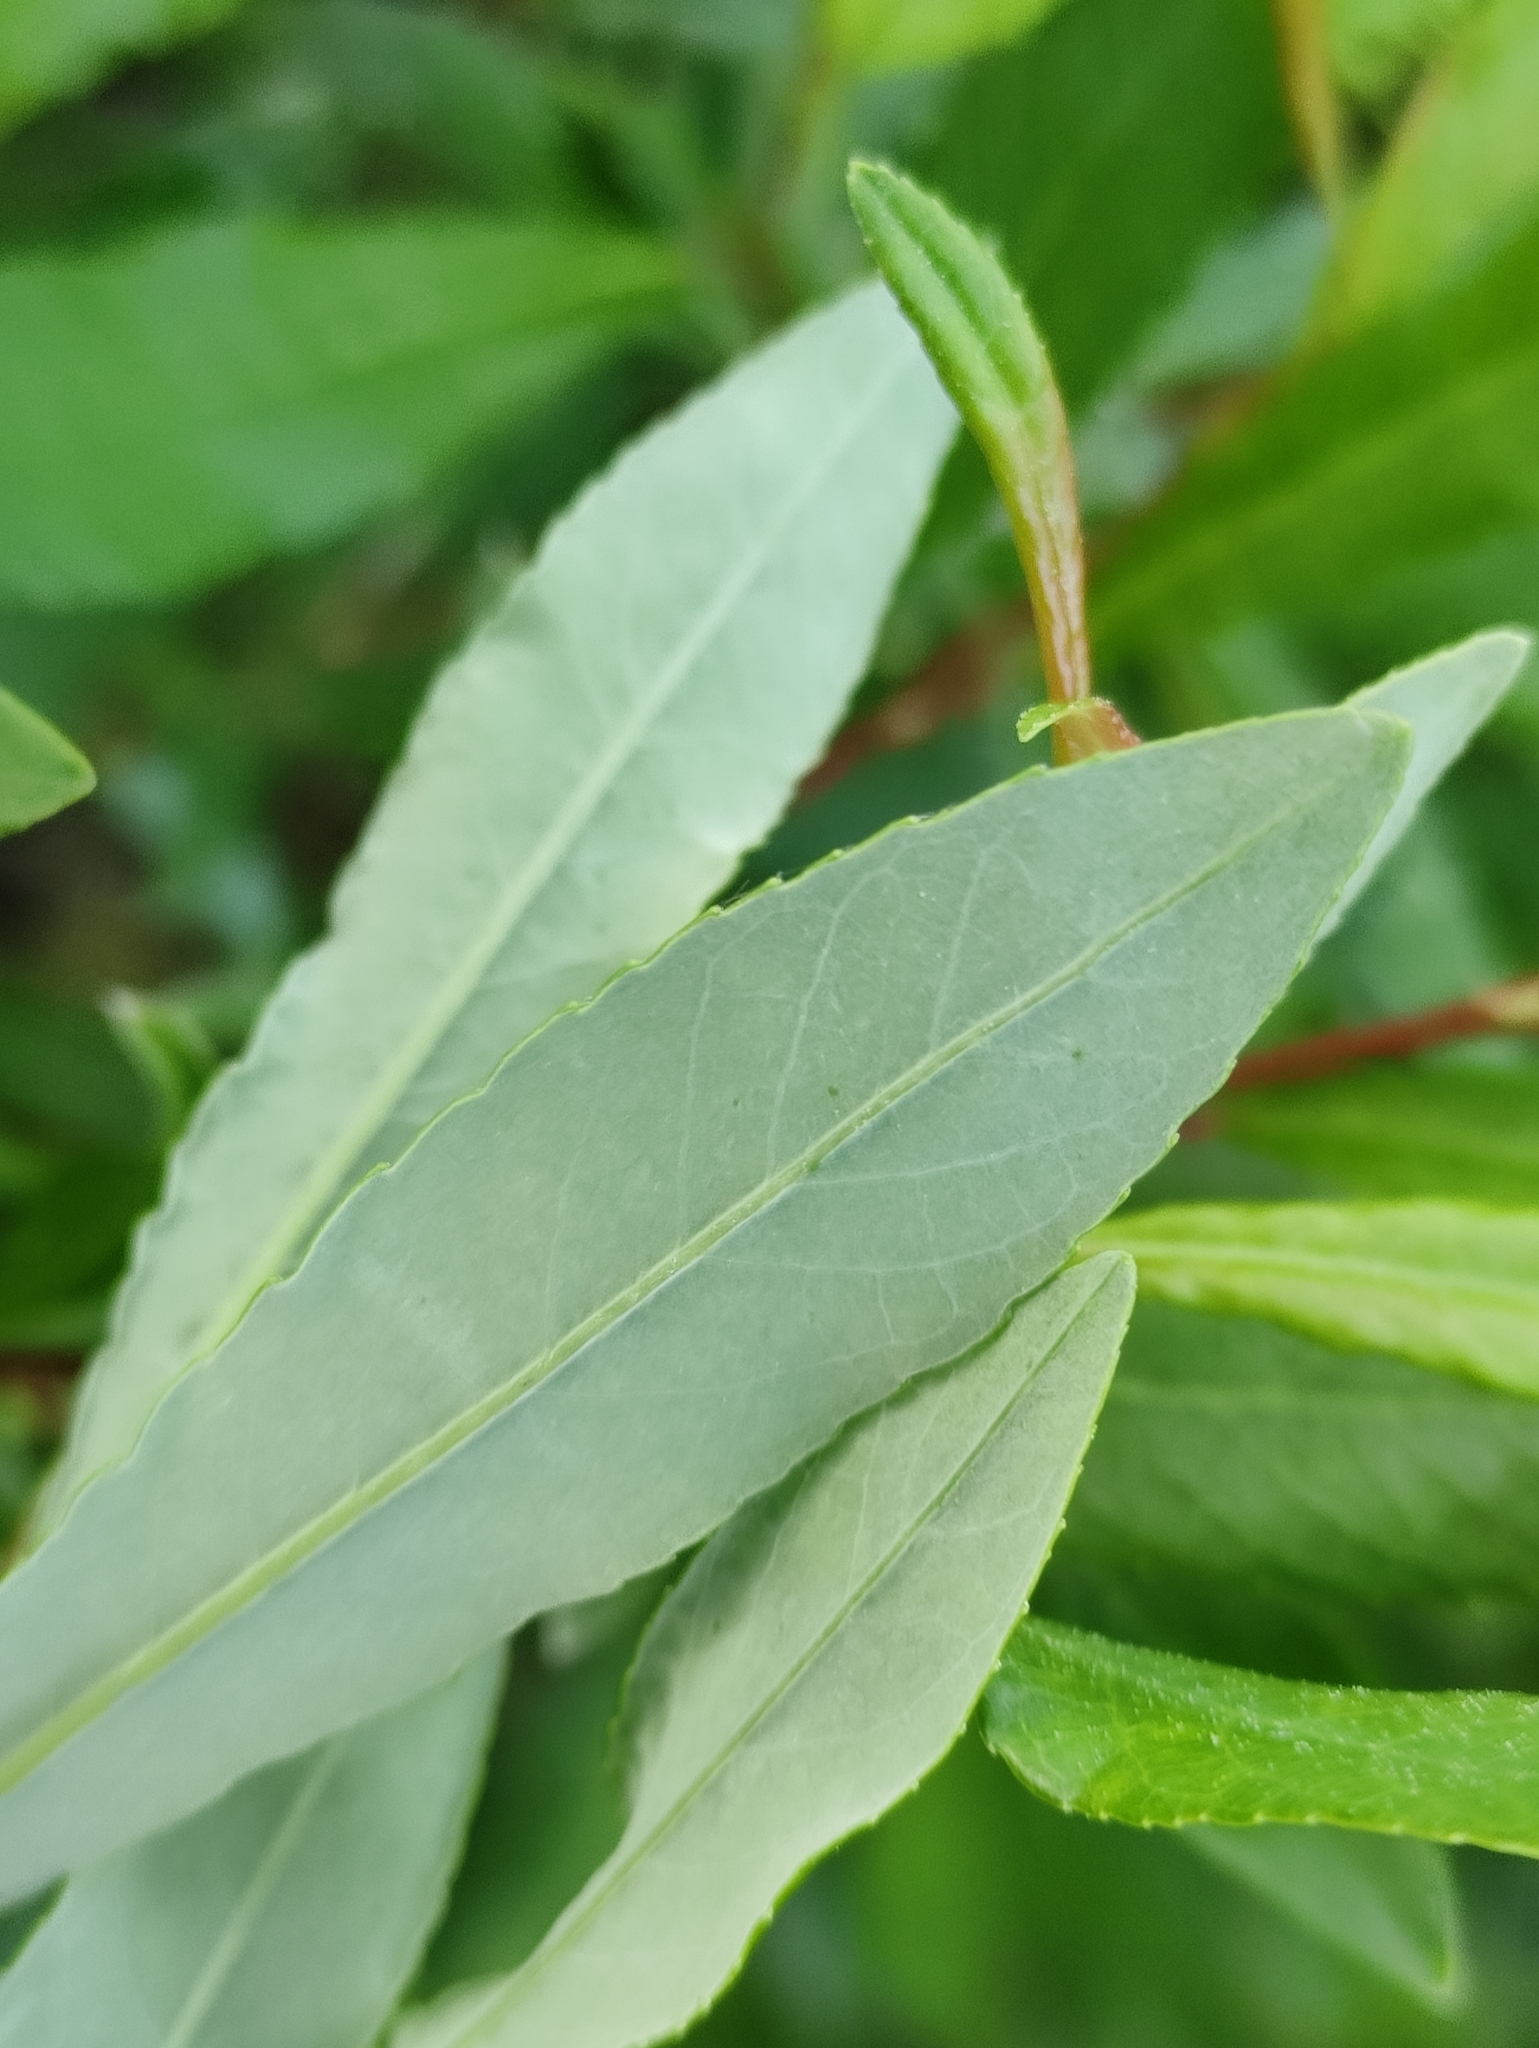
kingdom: Plantae
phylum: Tracheophyta
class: Magnoliopsida
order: Malpighiales
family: Salicaceae
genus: Salix
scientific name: Salix rhamnifolia
